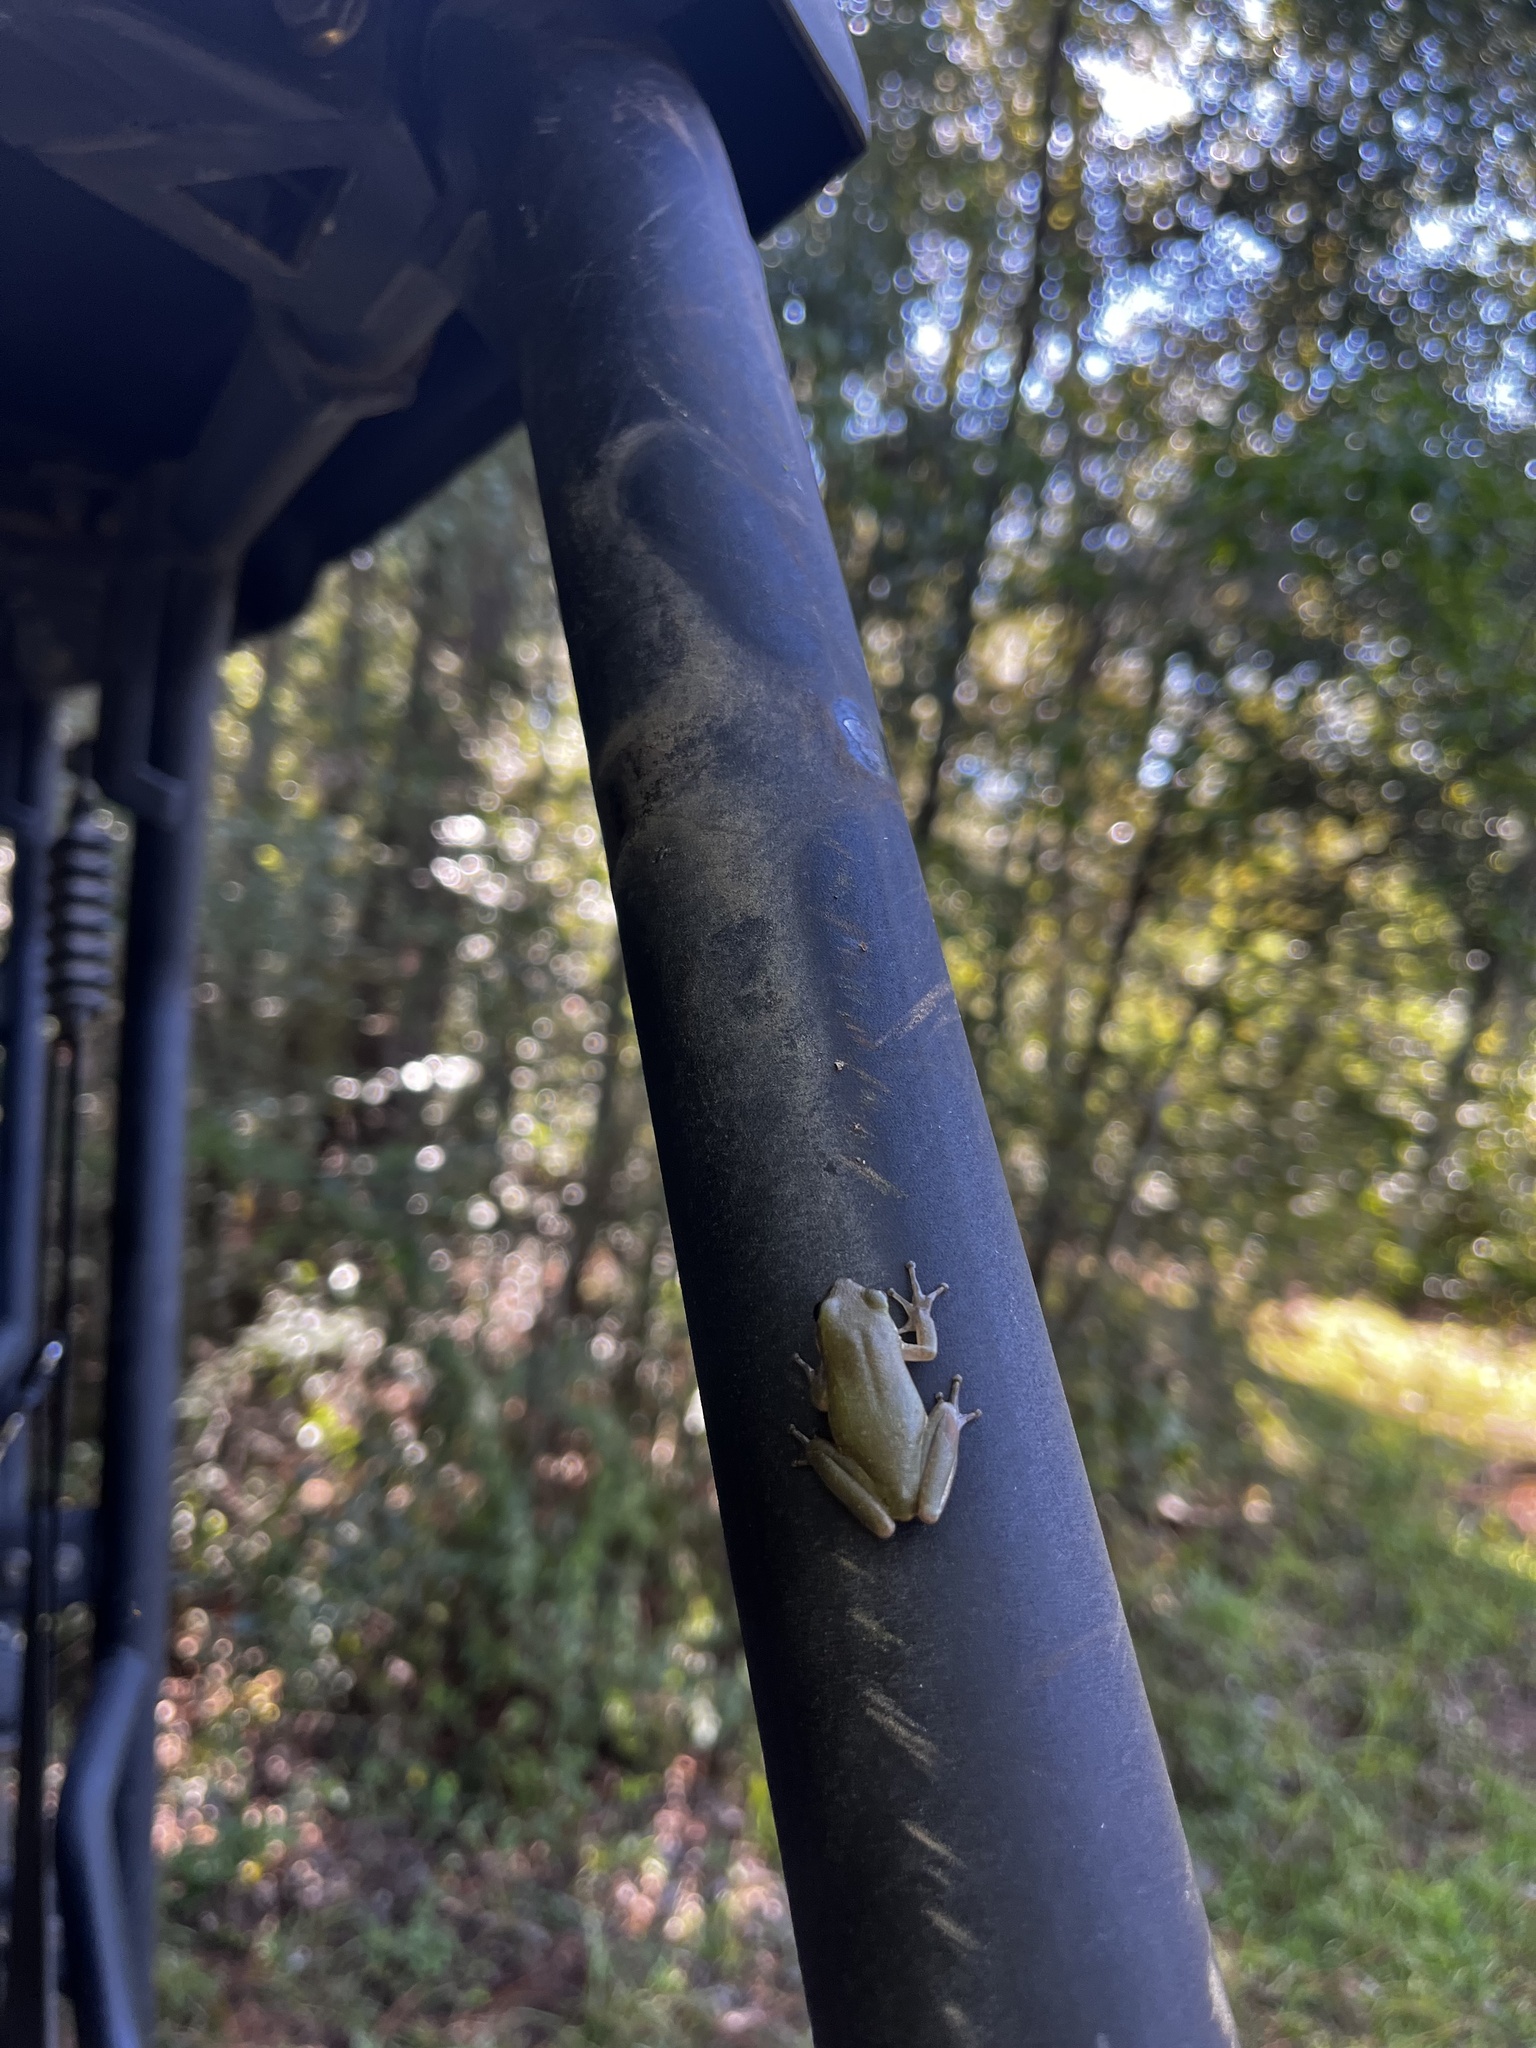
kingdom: Animalia
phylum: Chordata
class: Amphibia
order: Anura
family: Hylidae
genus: Dryophytes
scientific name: Dryophytes squirellus
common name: Squirrel treefrog
